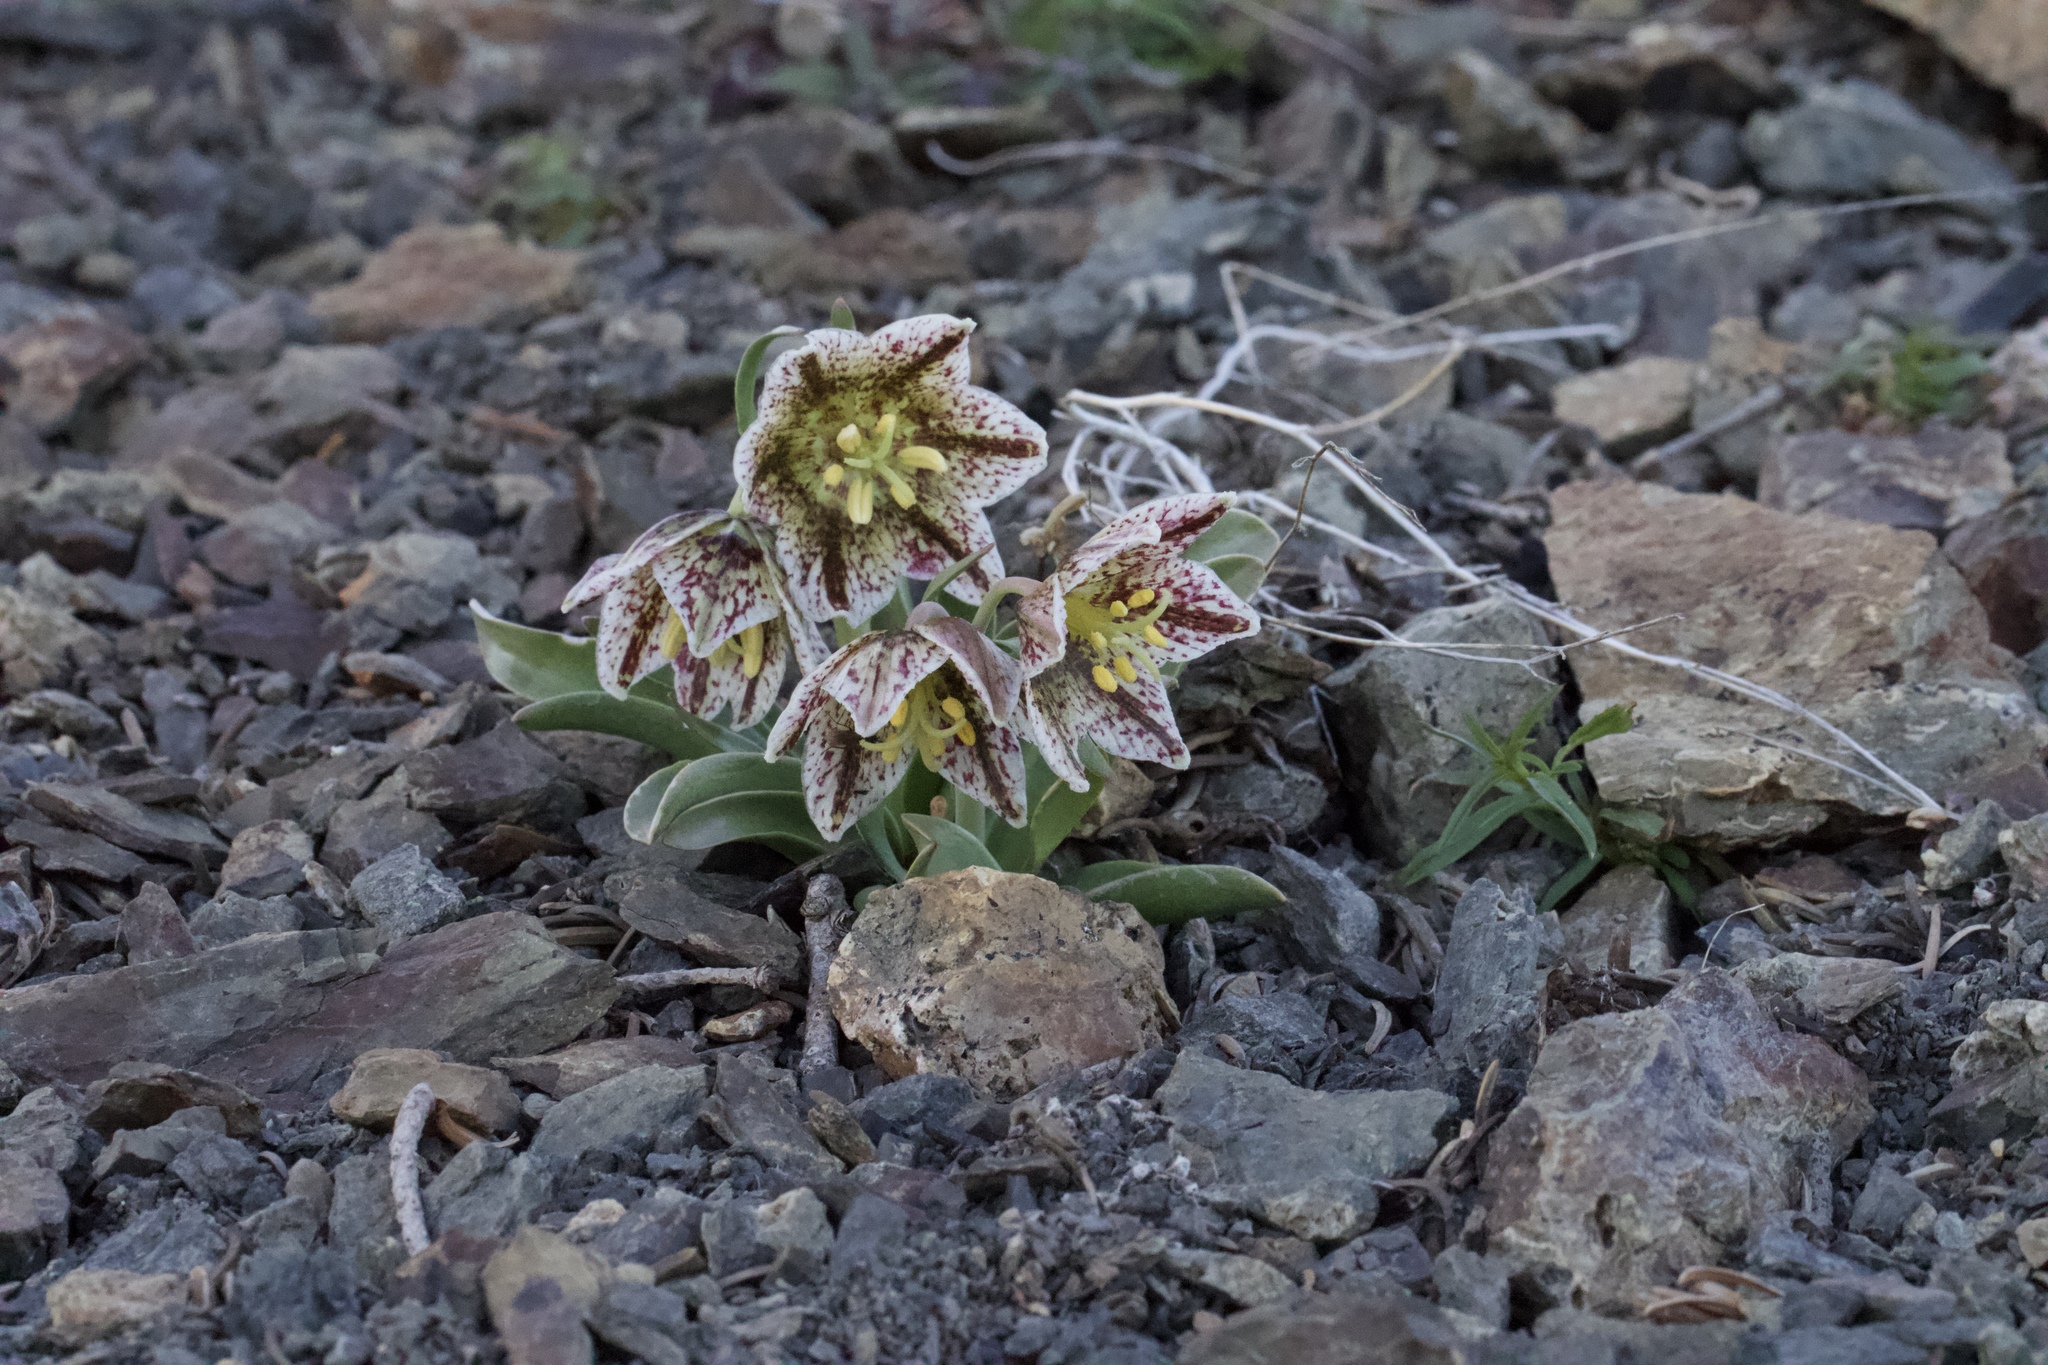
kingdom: Plantae
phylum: Tracheophyta
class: Liliopsida
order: Liliales
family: Liliaceae
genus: Fritillaria
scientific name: Fritillaria purdyi
